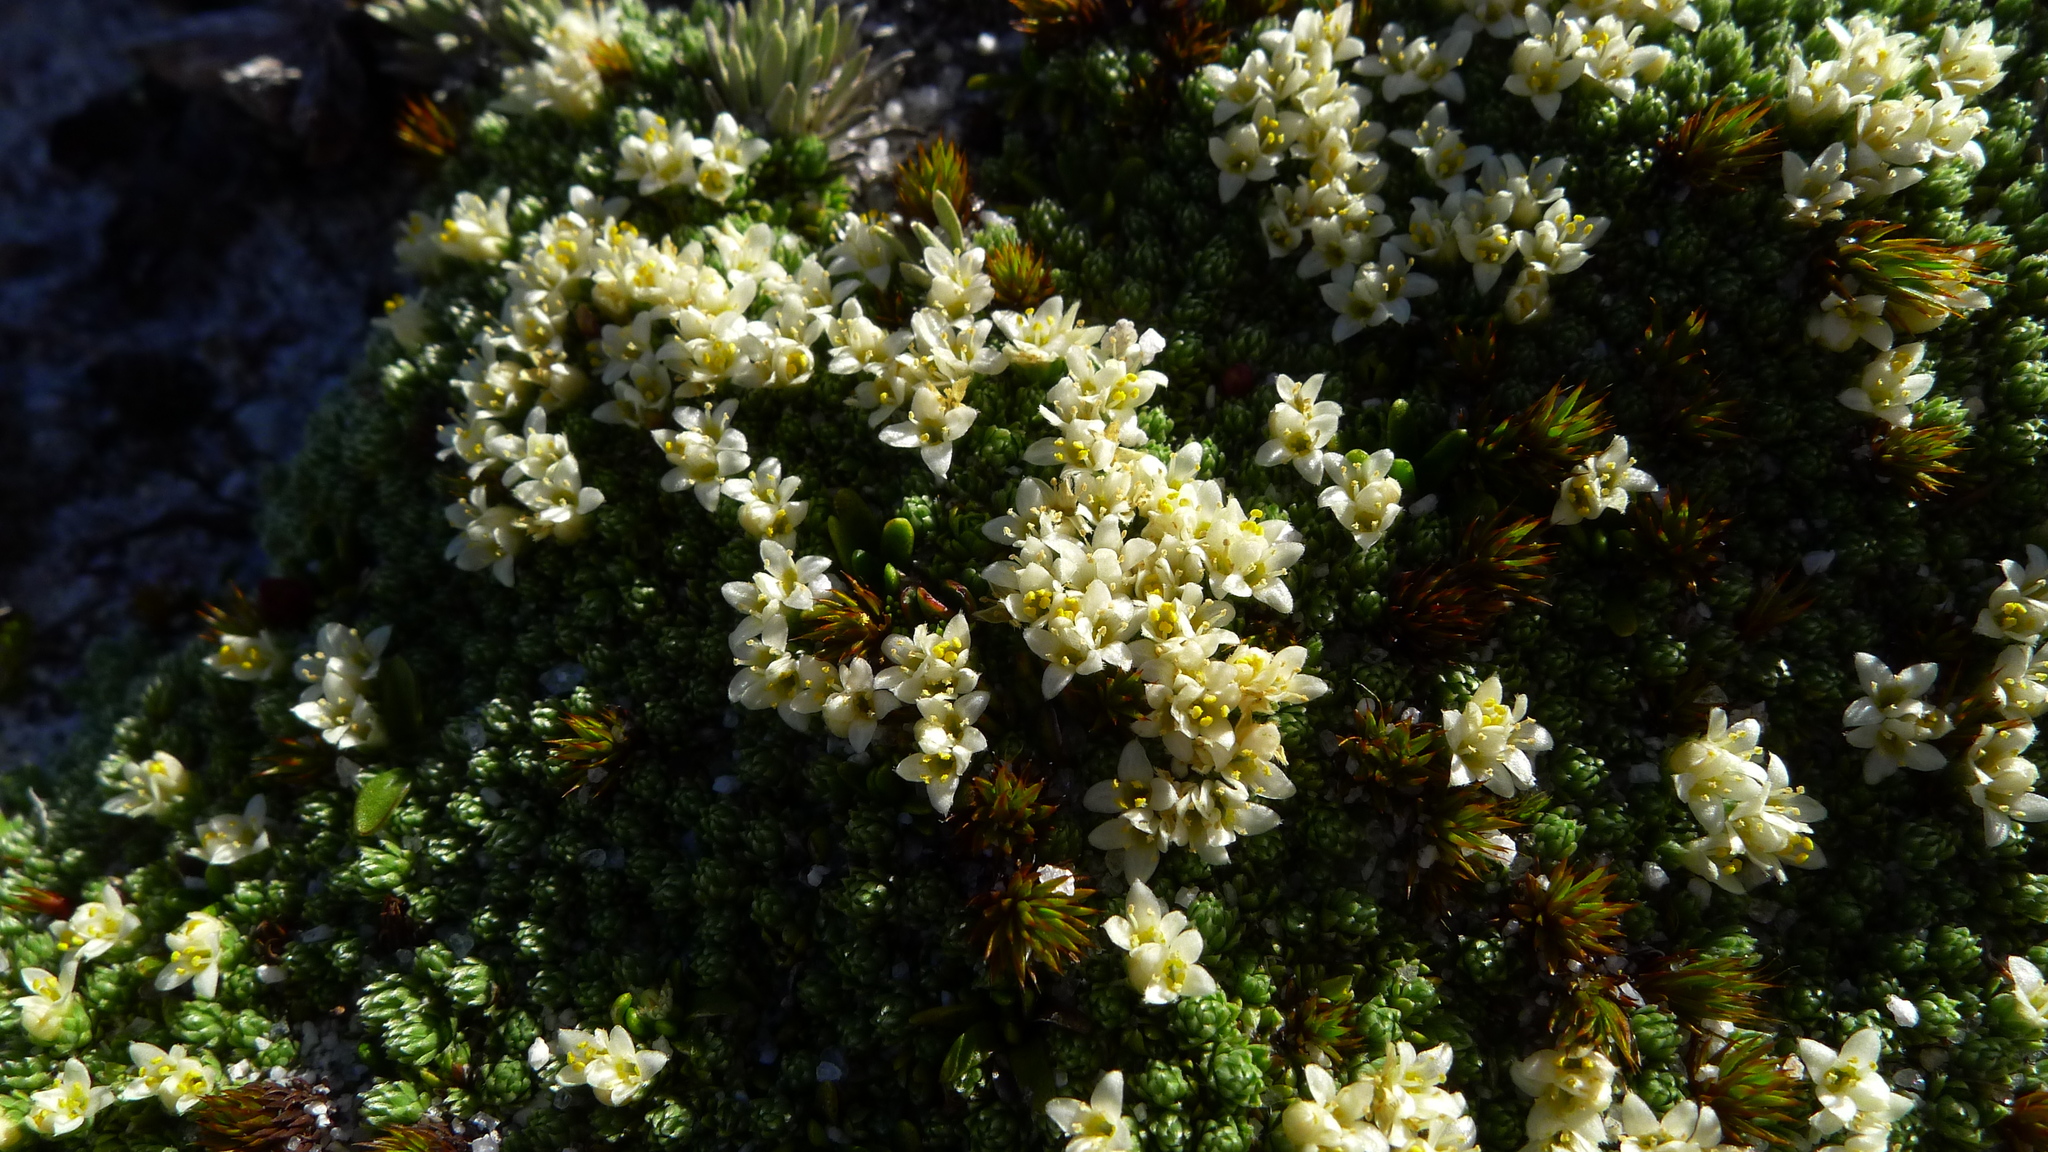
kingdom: Plantae
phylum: Tracheophyta
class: Magnoliopsida
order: Malvales
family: Thymelaeaceae
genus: Kelleria
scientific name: Kelleria croizatii
